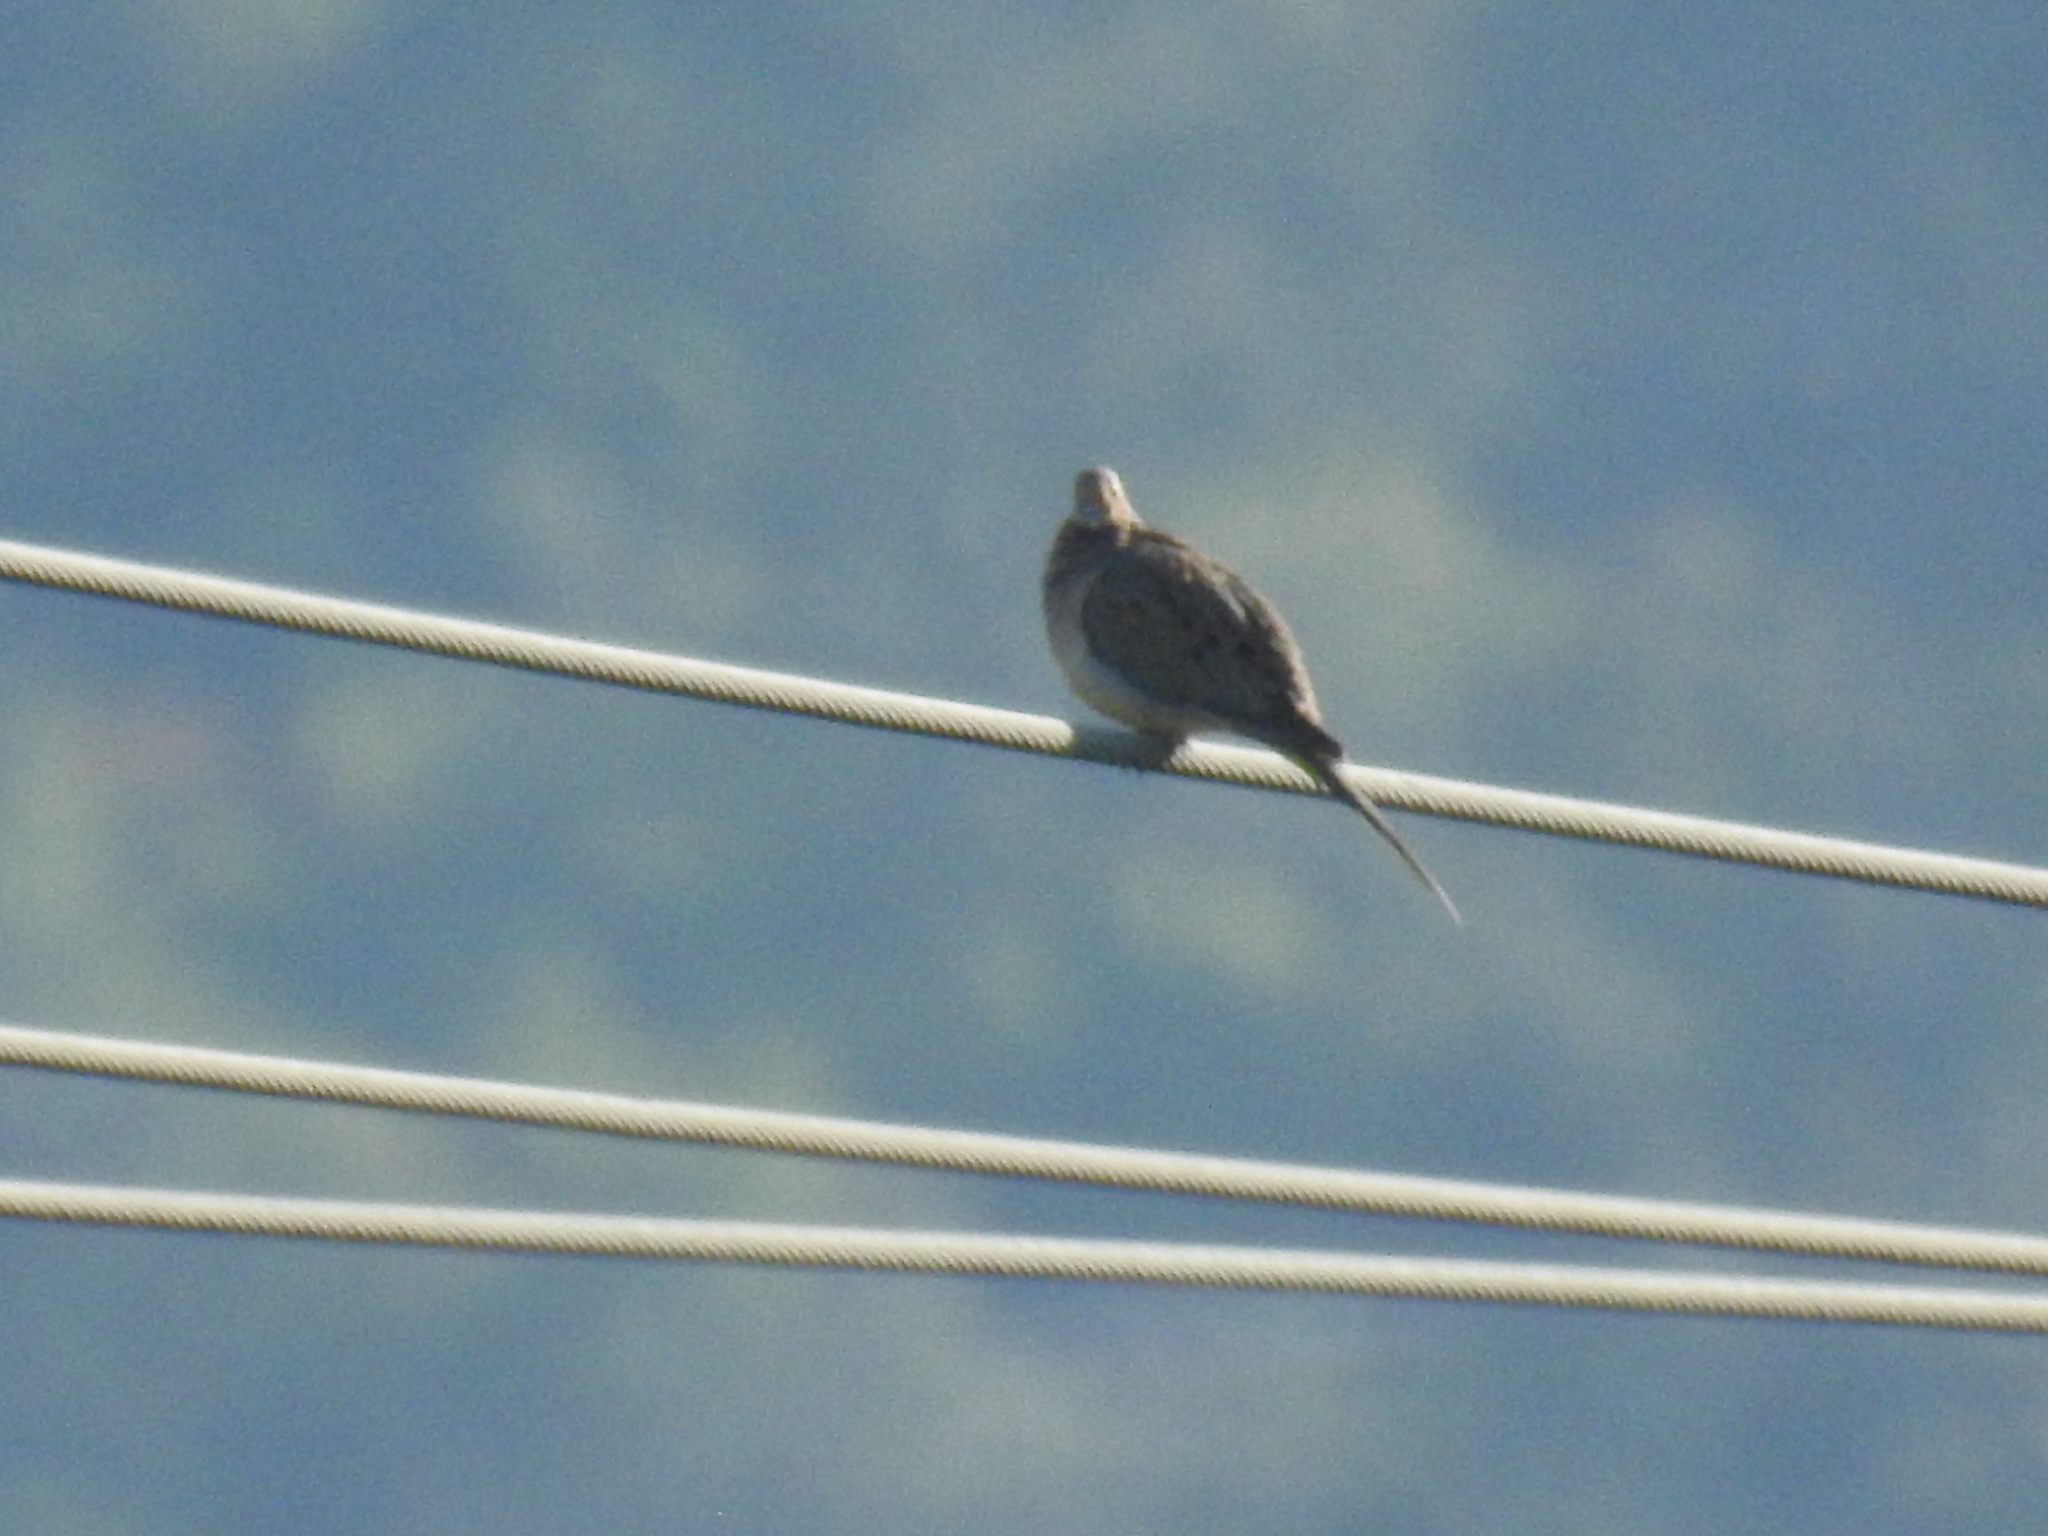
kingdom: Animalia
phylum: Chordata
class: Aves
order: Columbiformes
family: Columbidae
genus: Zenaida
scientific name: Zenaida macroura
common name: Mourning dove
